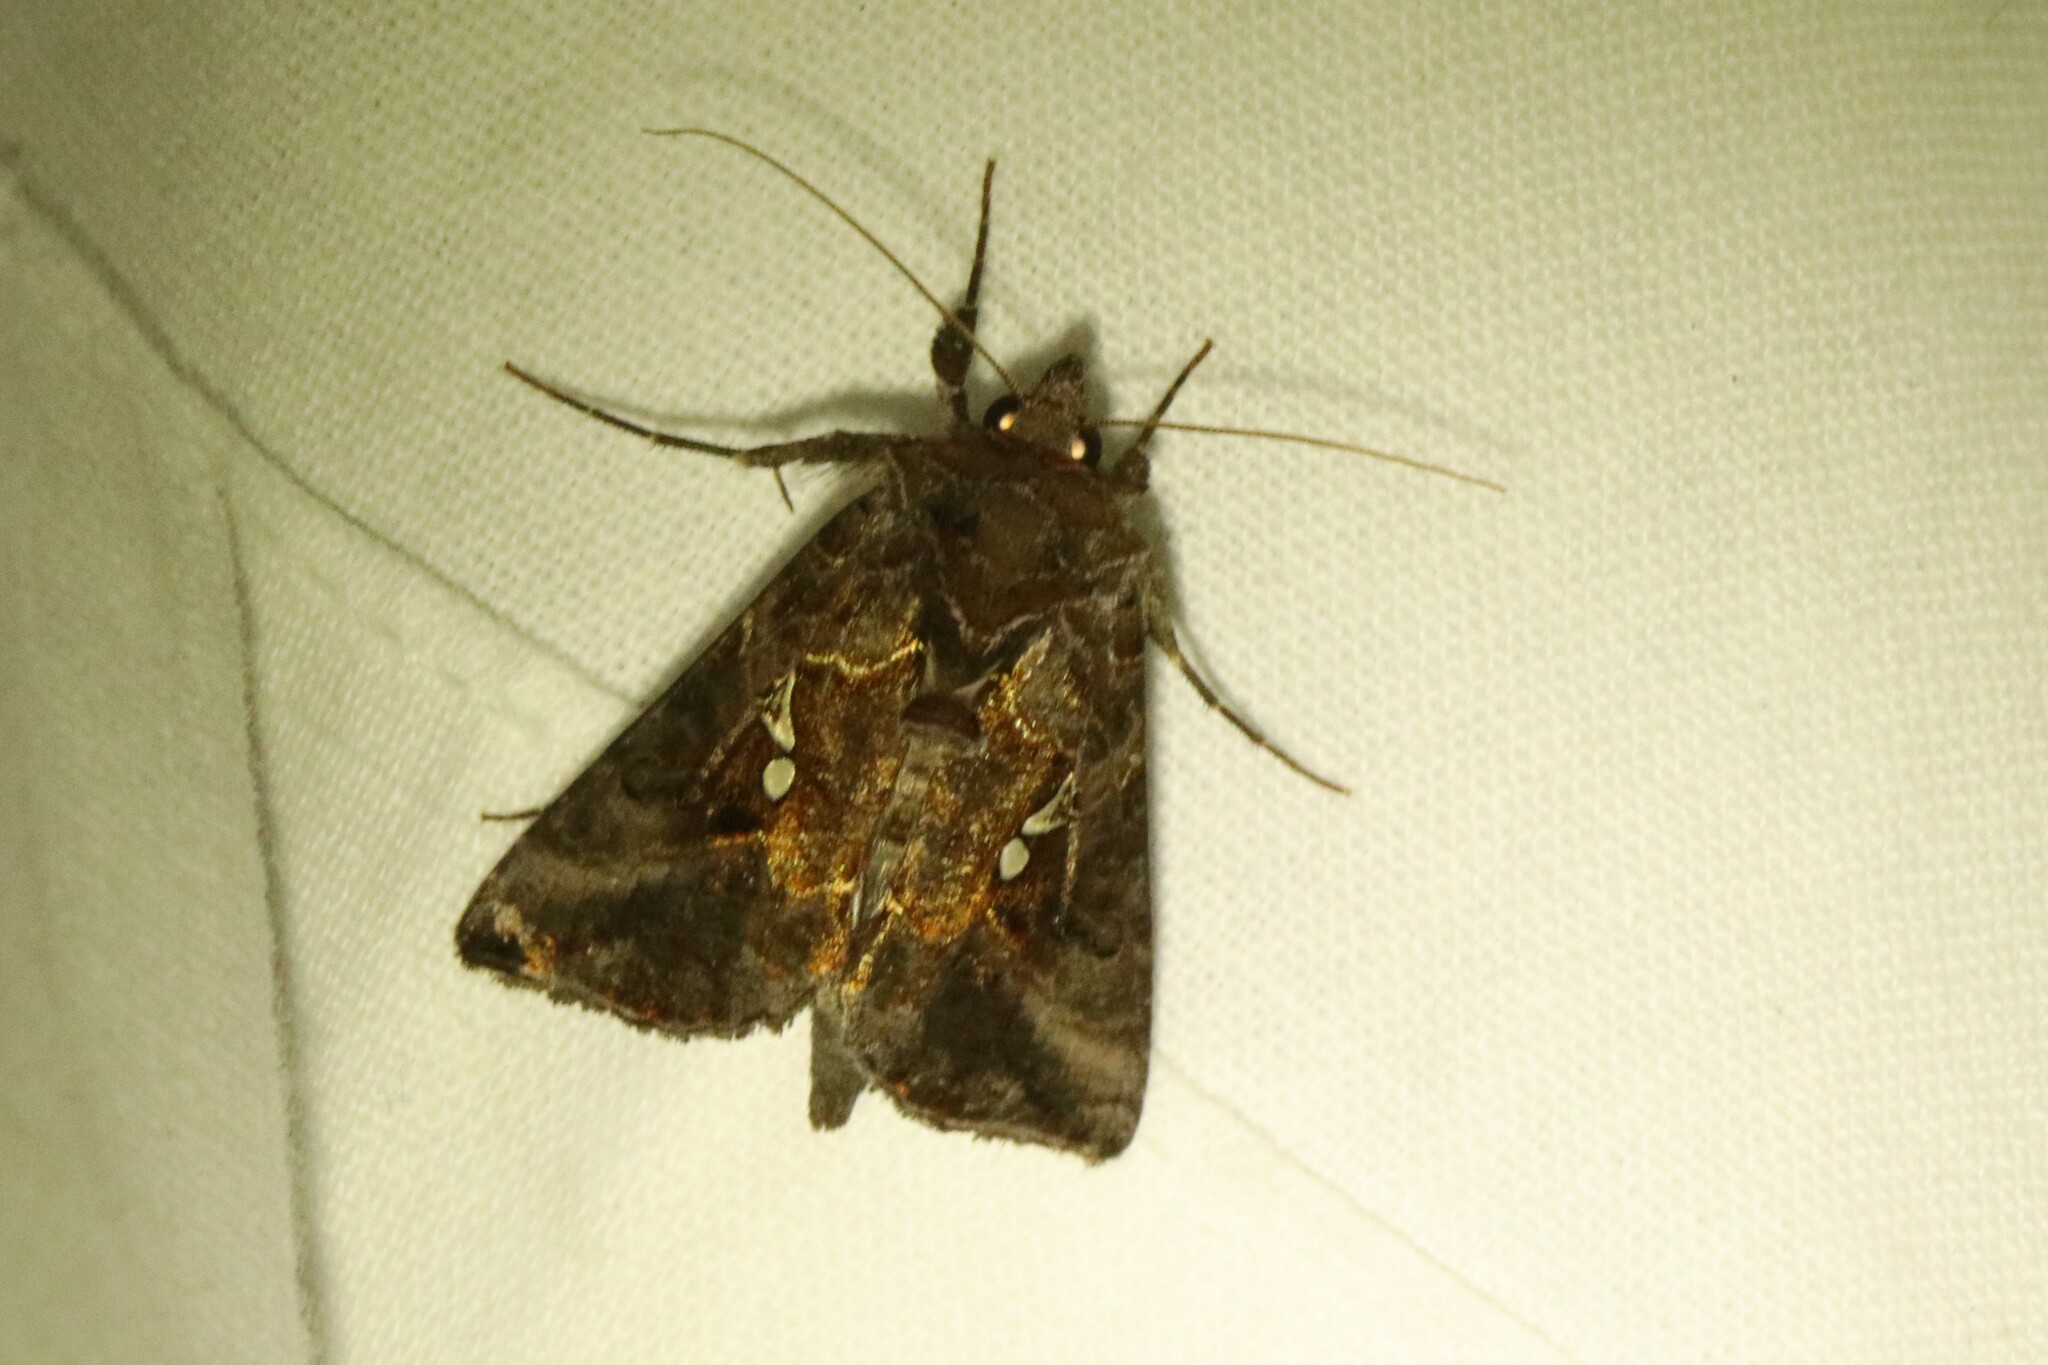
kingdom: Animalia
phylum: Arthropoda
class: Insecta
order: Lepidoptera
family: Noctuidae
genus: Autographa
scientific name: Autographa precationis
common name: Common looper moth
